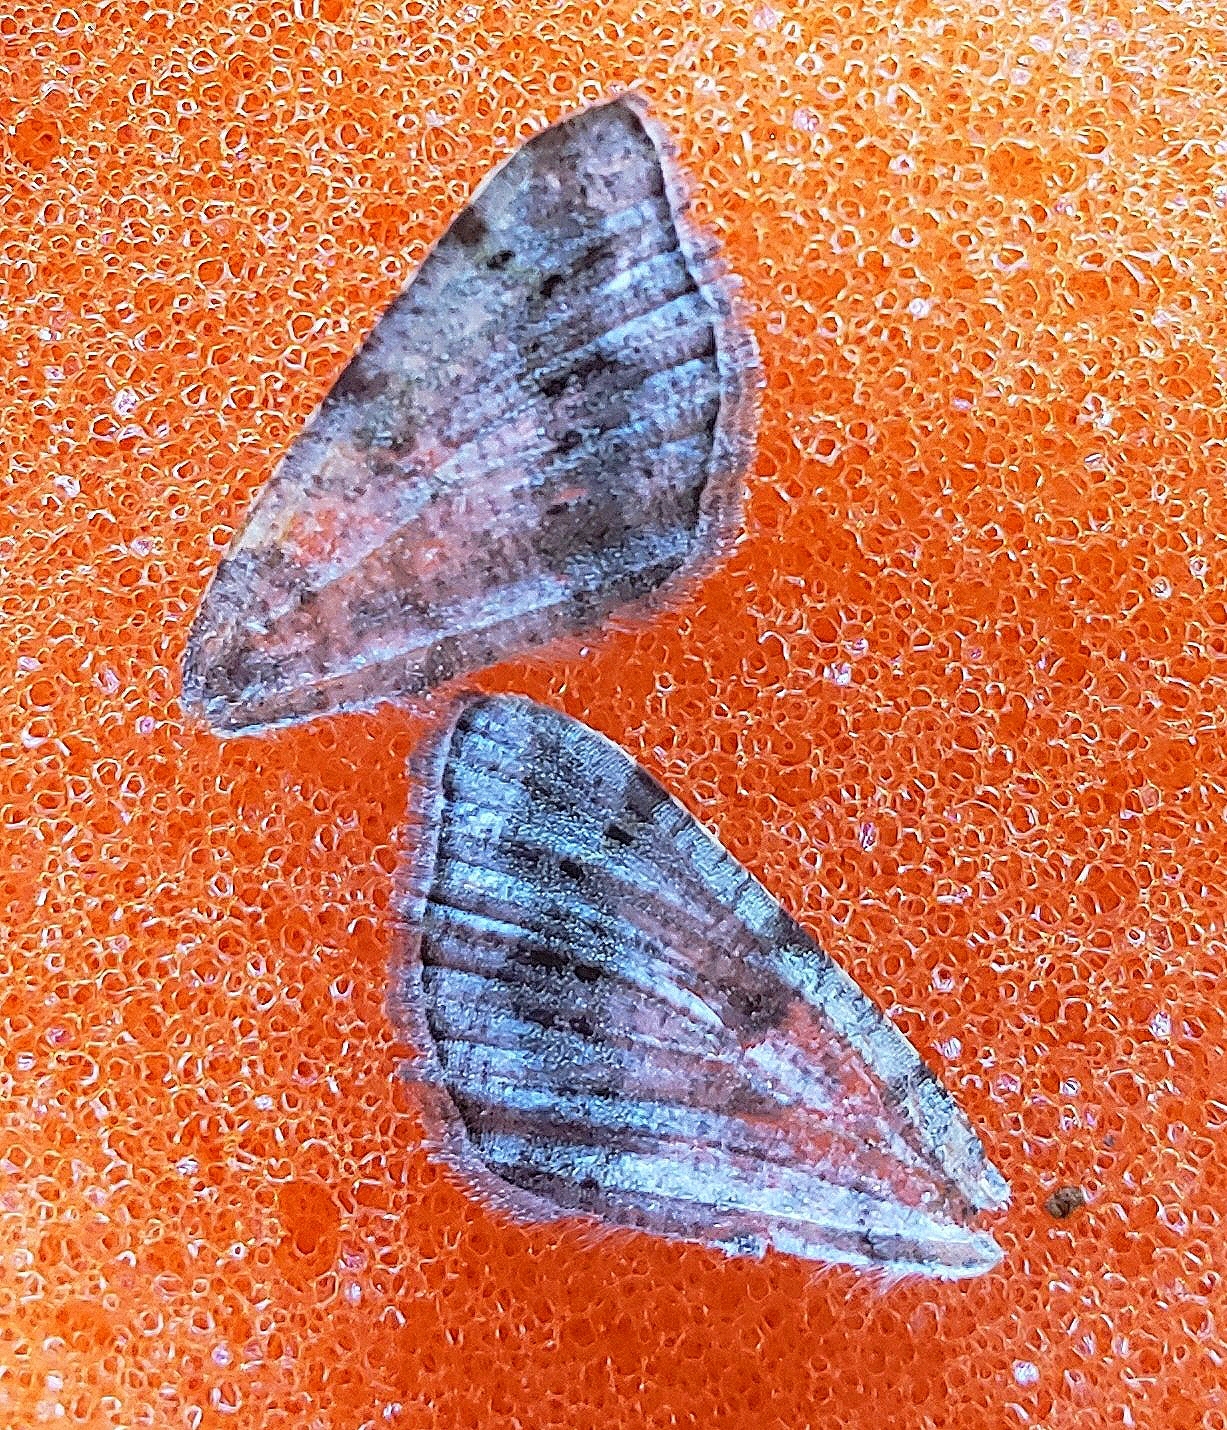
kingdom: Animalia
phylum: Arthropoda
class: Insecta
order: Lepidoptera
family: Geometridae
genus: Digrammia
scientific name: Digrammia ocellinata
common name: Faint-spotted angle
